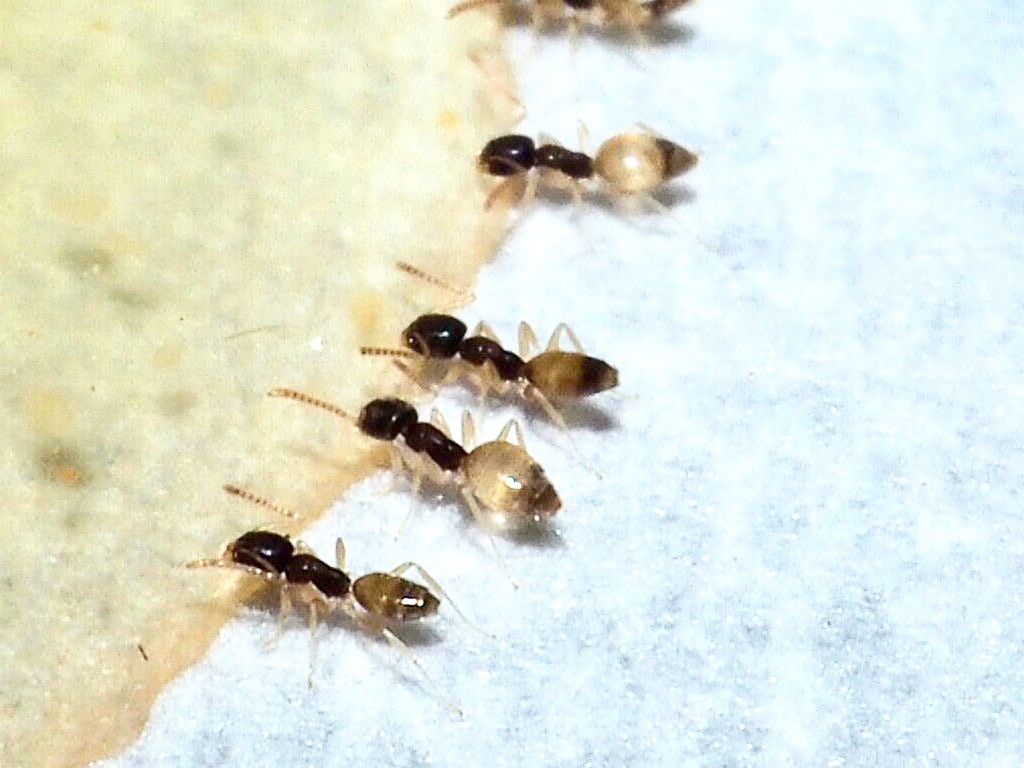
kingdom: Animalia
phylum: Arthropoda
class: Insecta
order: Hymenoptera
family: Formicidae
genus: Tapinoma
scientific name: Tapinoma melanocephalum
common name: Ghost ant
